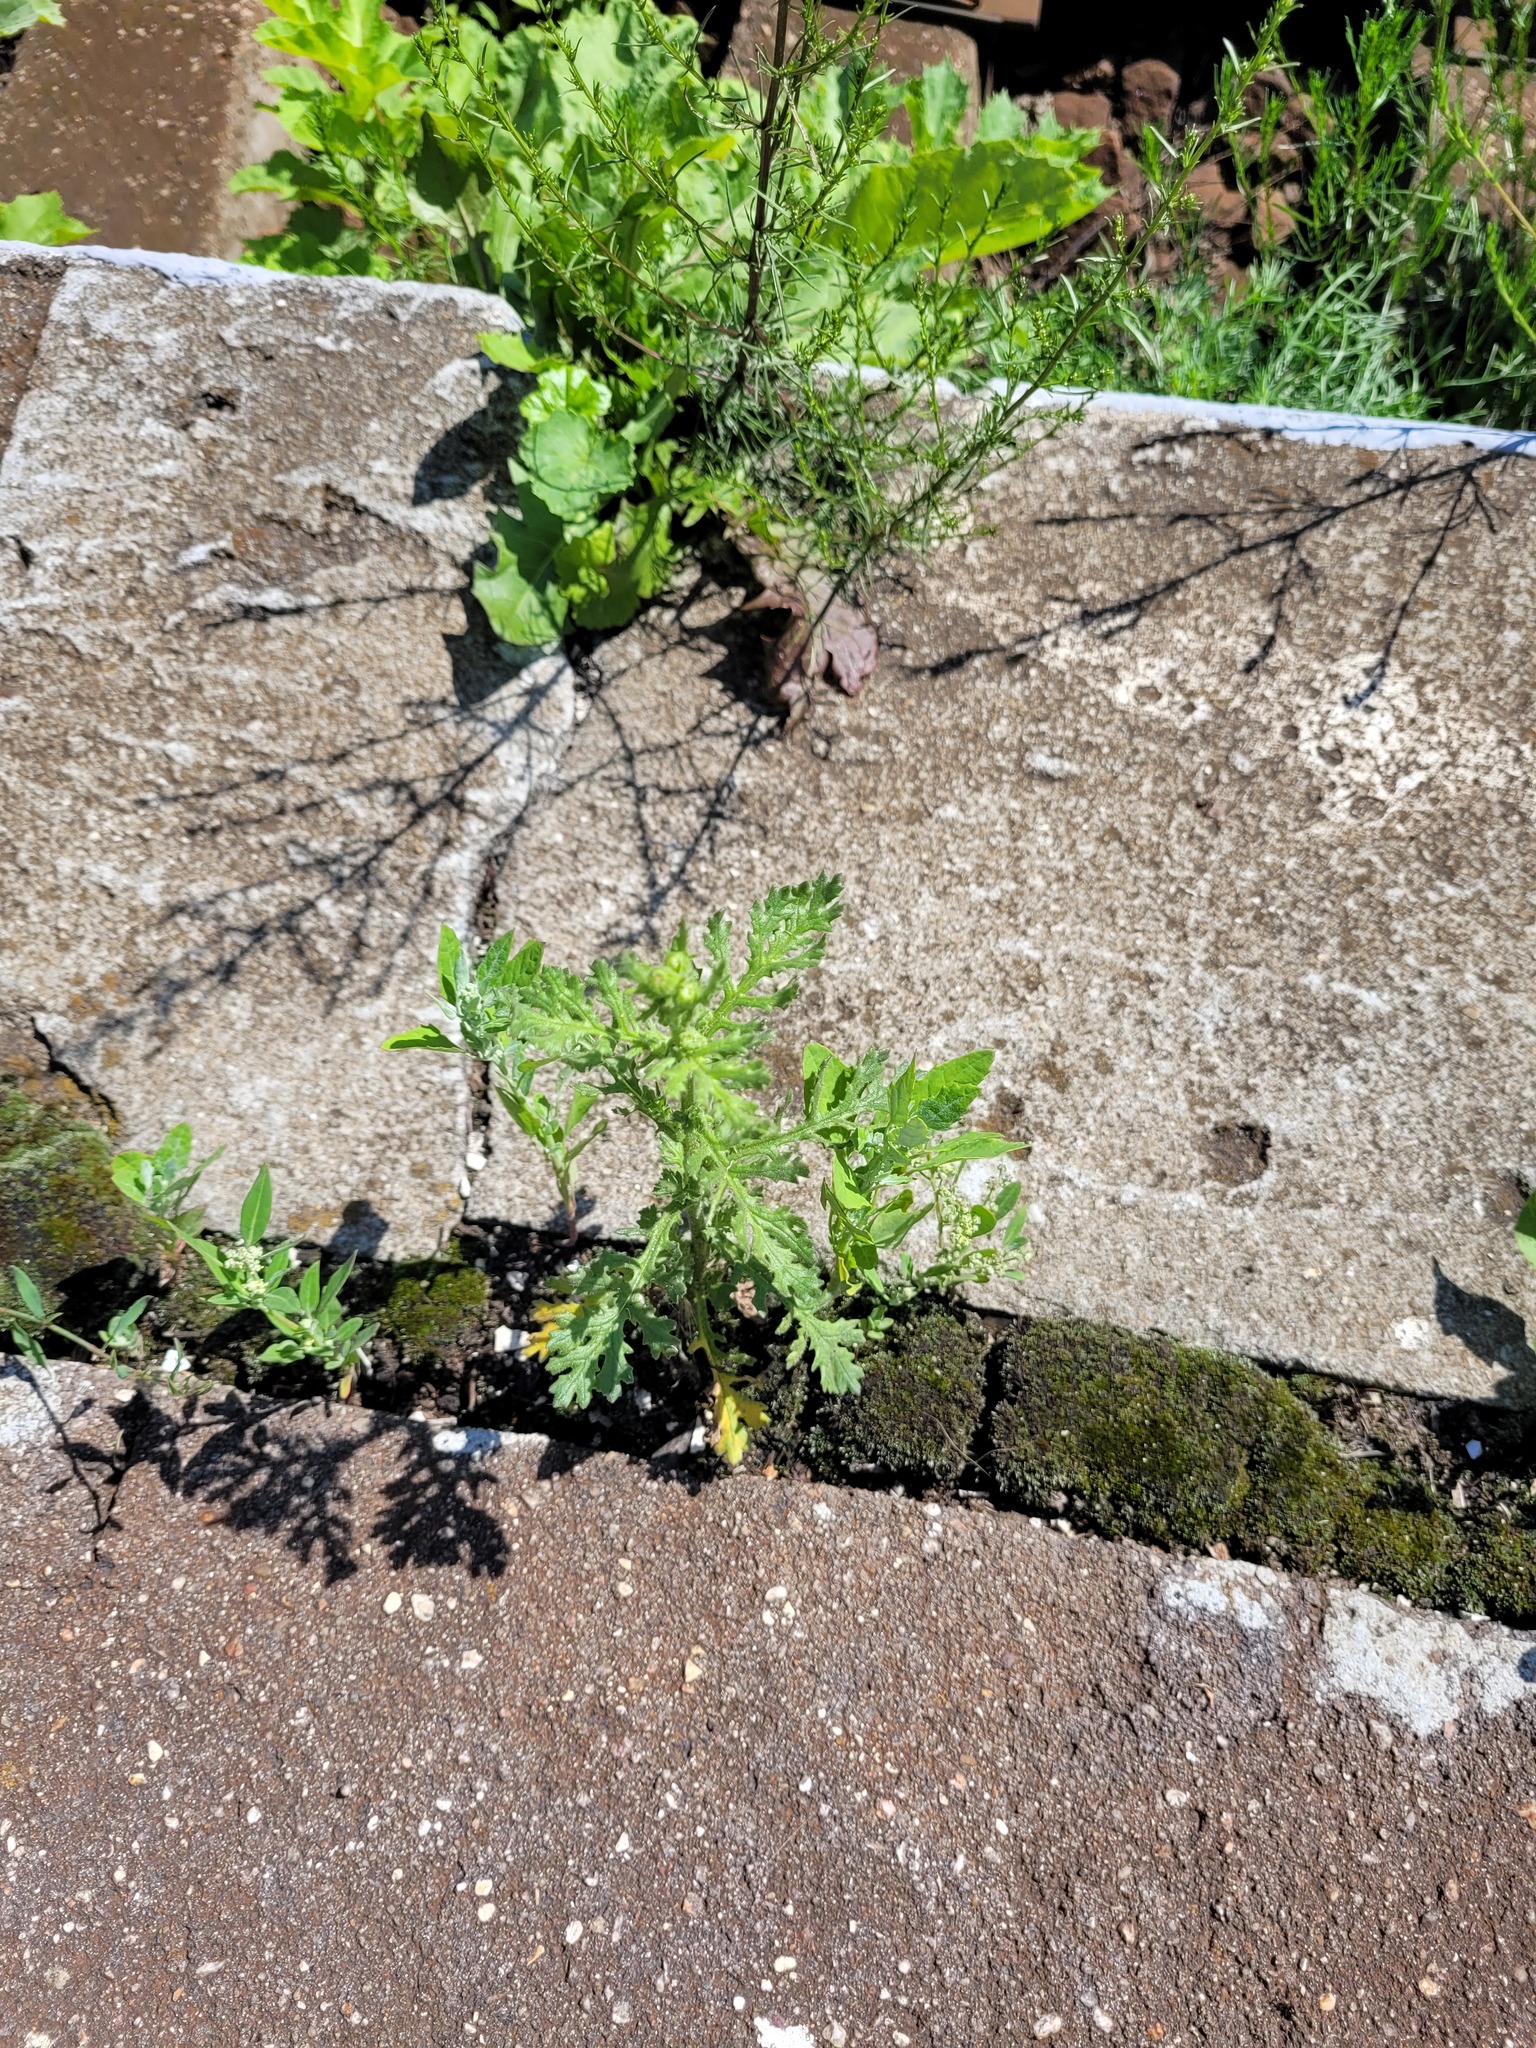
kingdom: Plantae
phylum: Tracheophyta
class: Magnoliopsida
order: Asterales
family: Asteraceae
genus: Senecio
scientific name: Senecio viscosus
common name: Sticky groundsel
